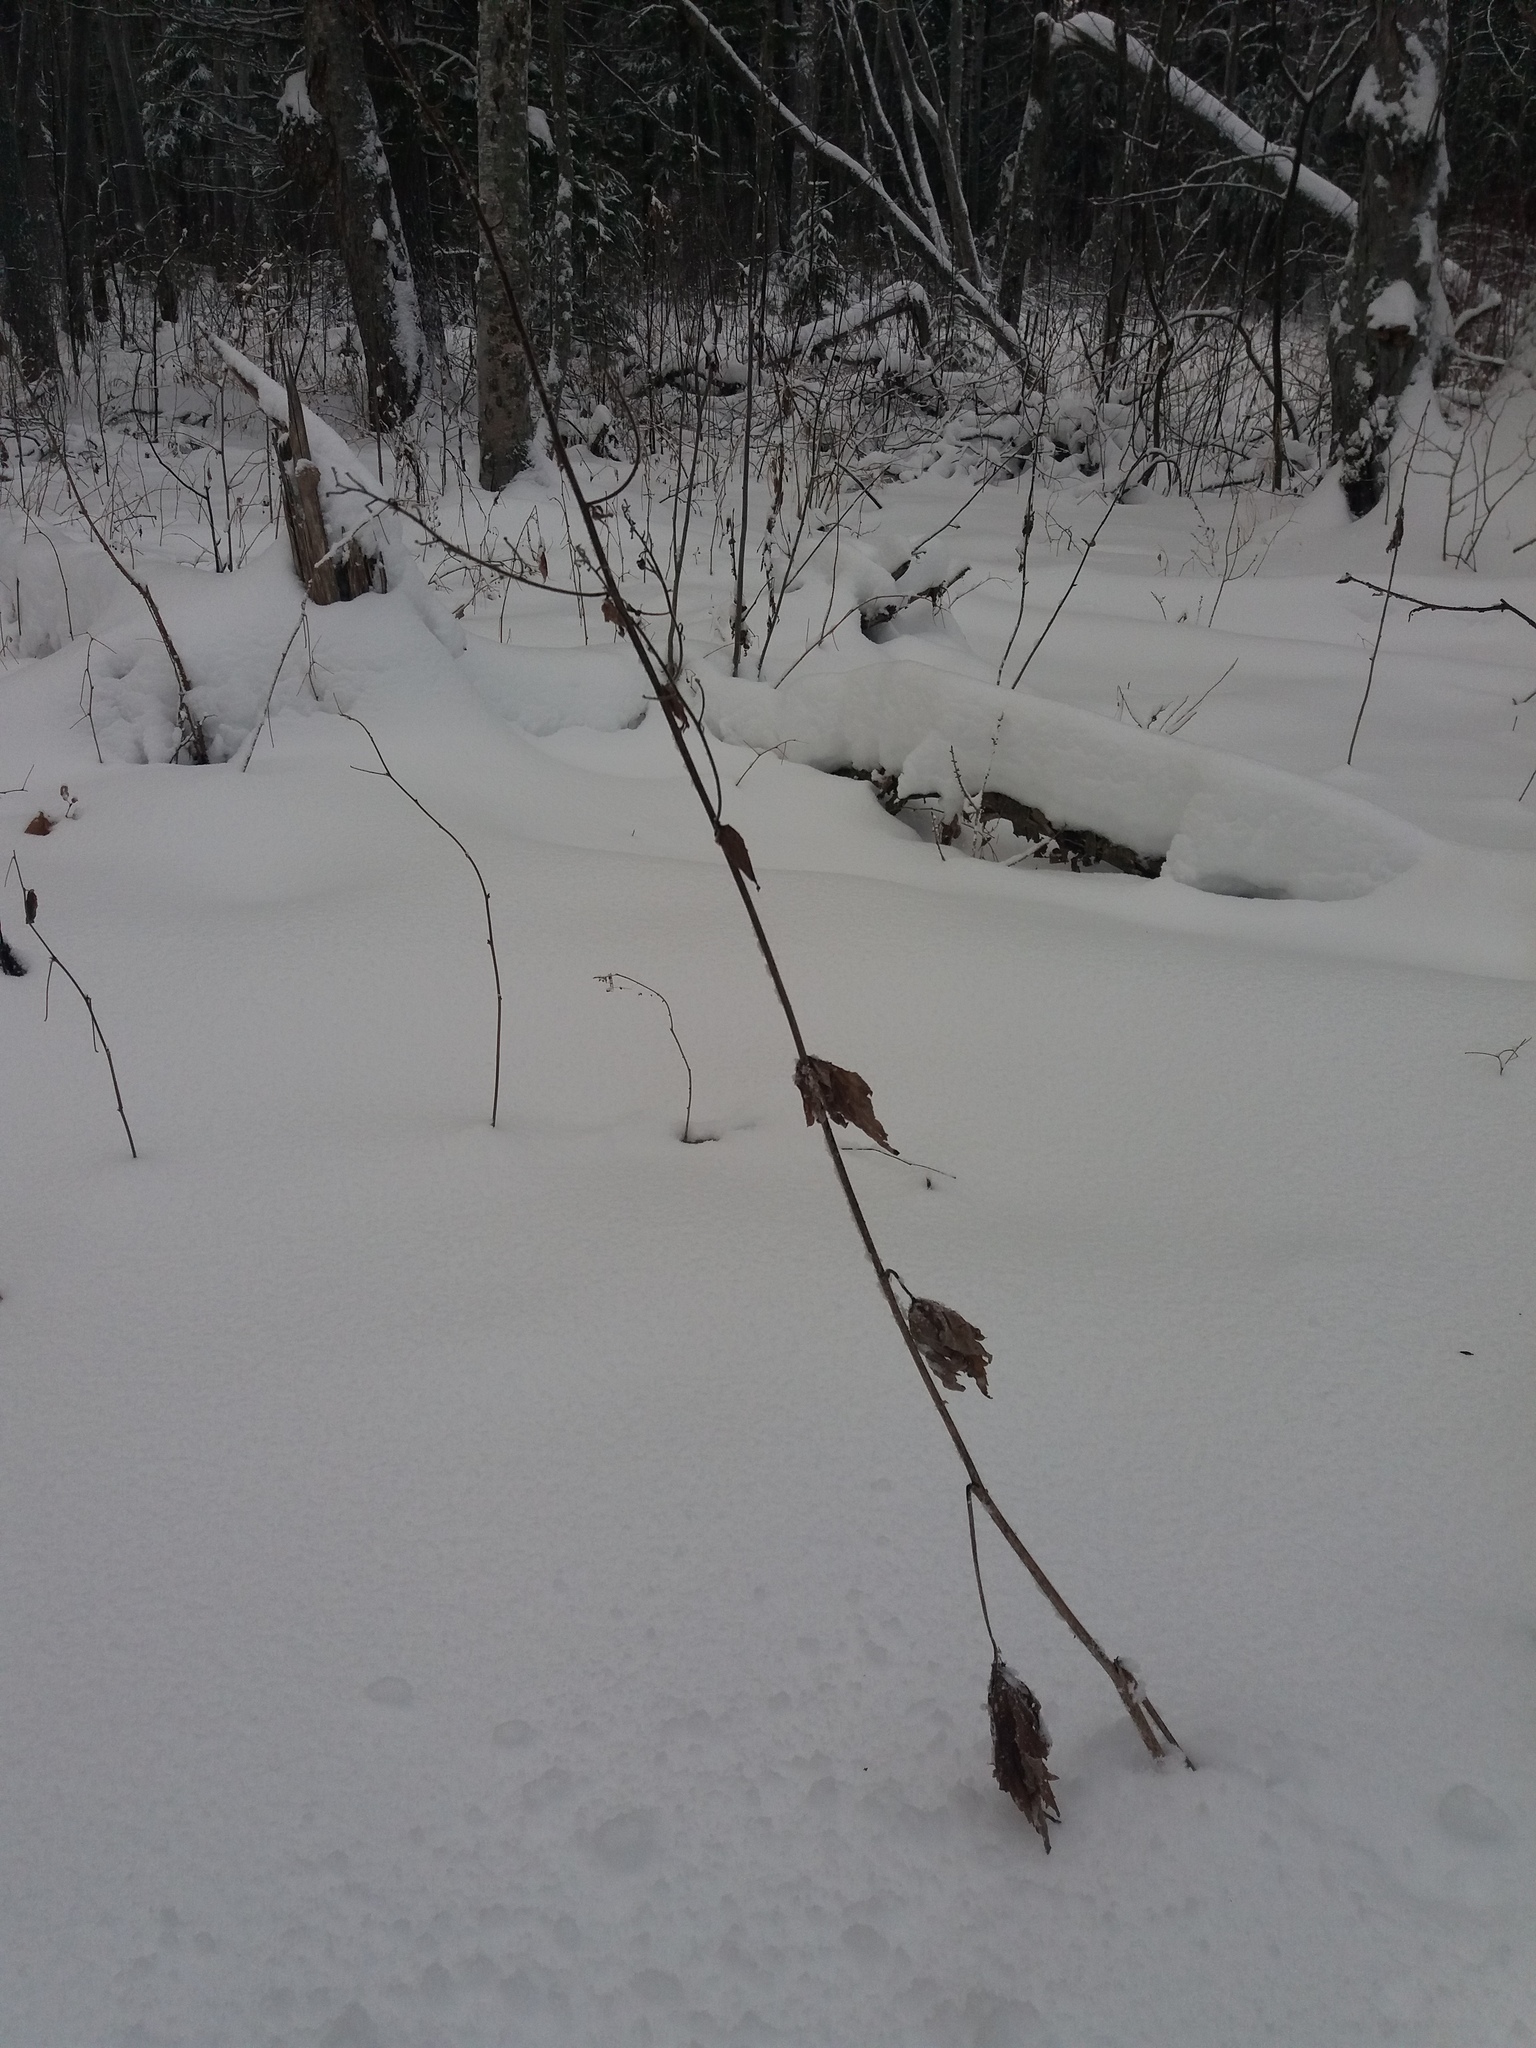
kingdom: Plantae
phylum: Tracheophyta
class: Magnoliopsida
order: Ranunculales
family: Ranunculaceae
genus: Aconitum
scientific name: Aconitum septentrionale
